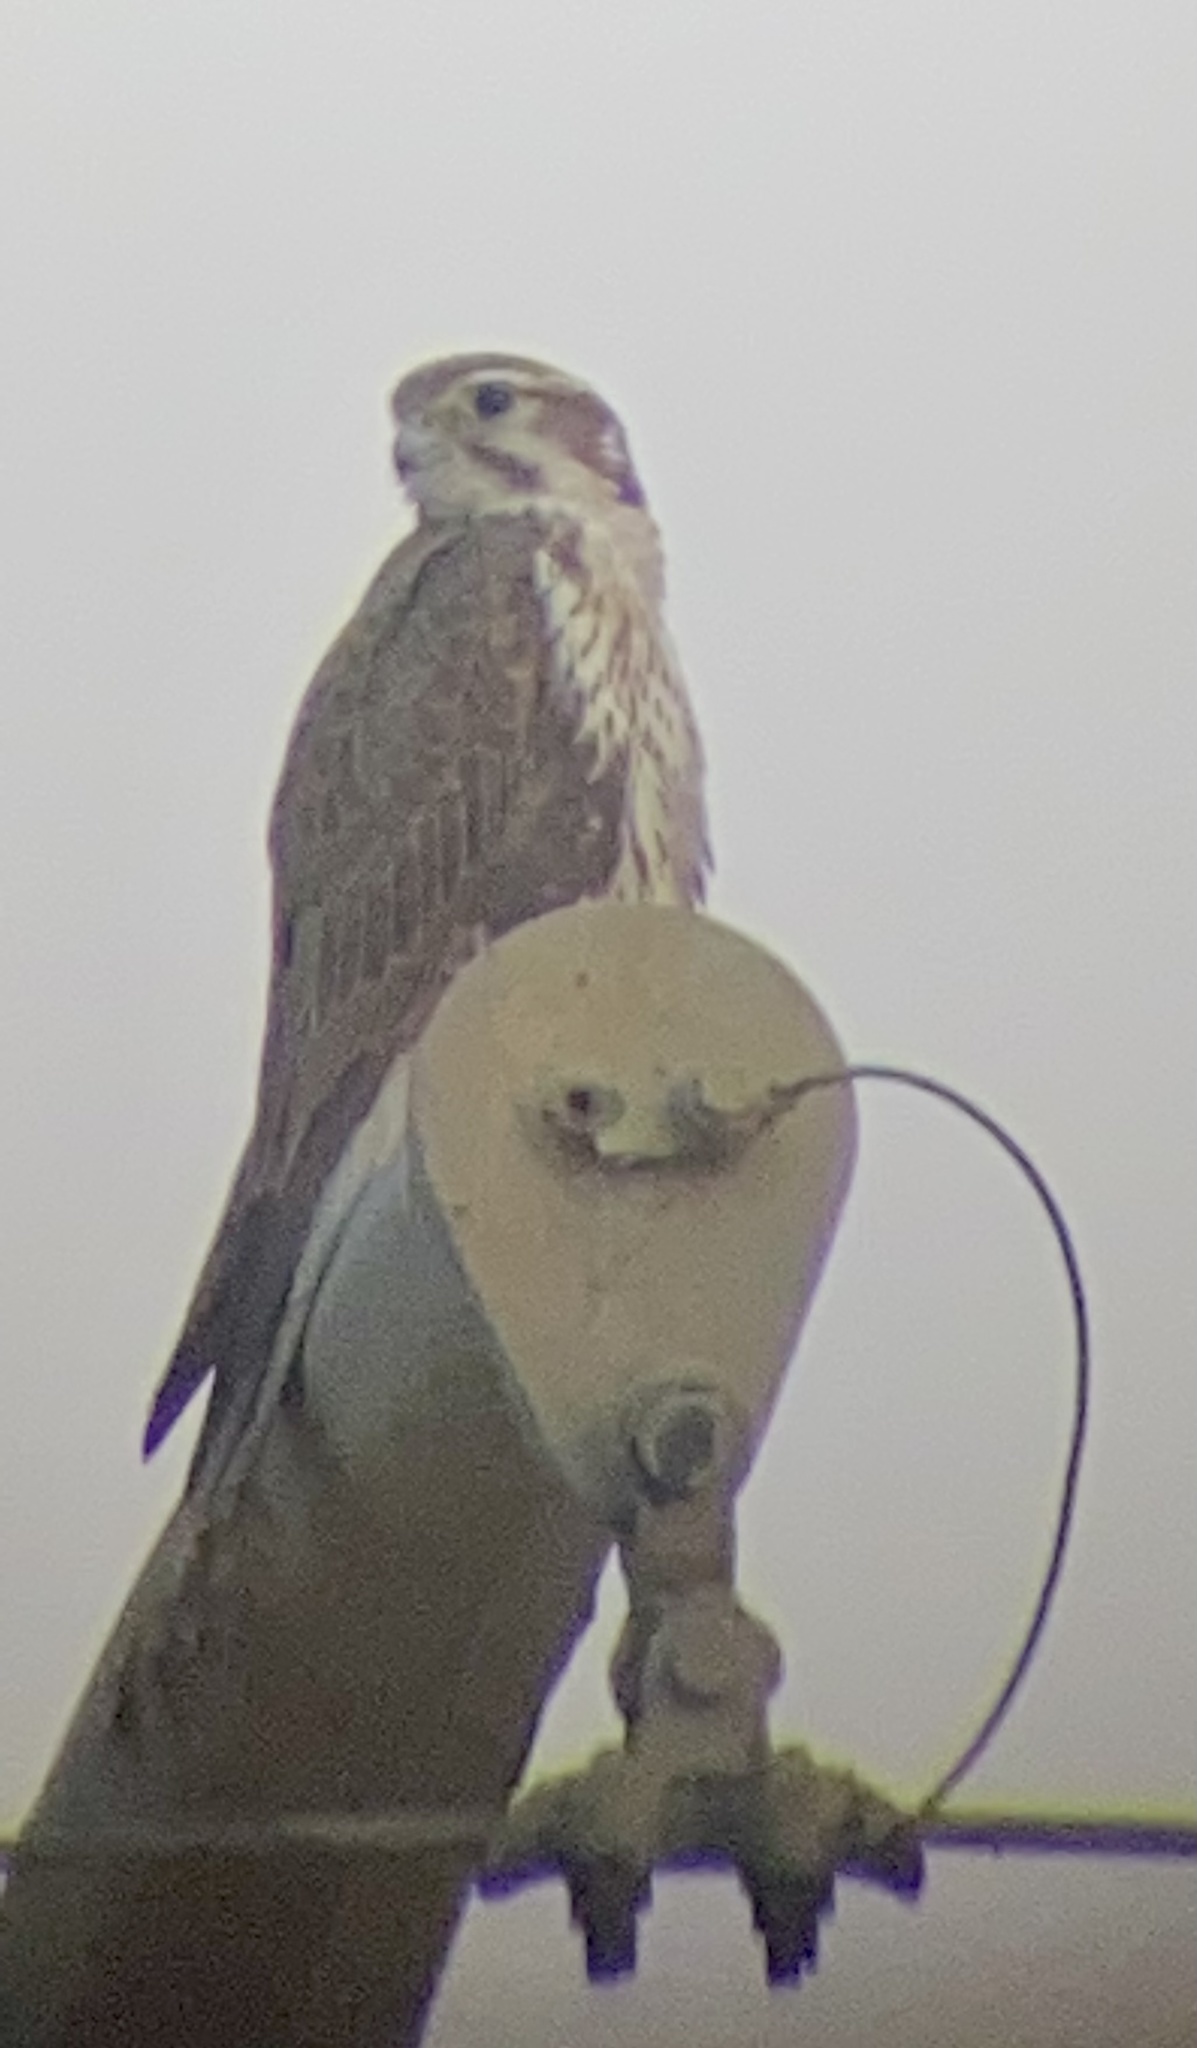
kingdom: Animalia
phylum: Chordata
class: Aves
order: Falconiformes
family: Falconidae
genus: Falco
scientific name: Falco mexicanus
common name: Prairie falcon
